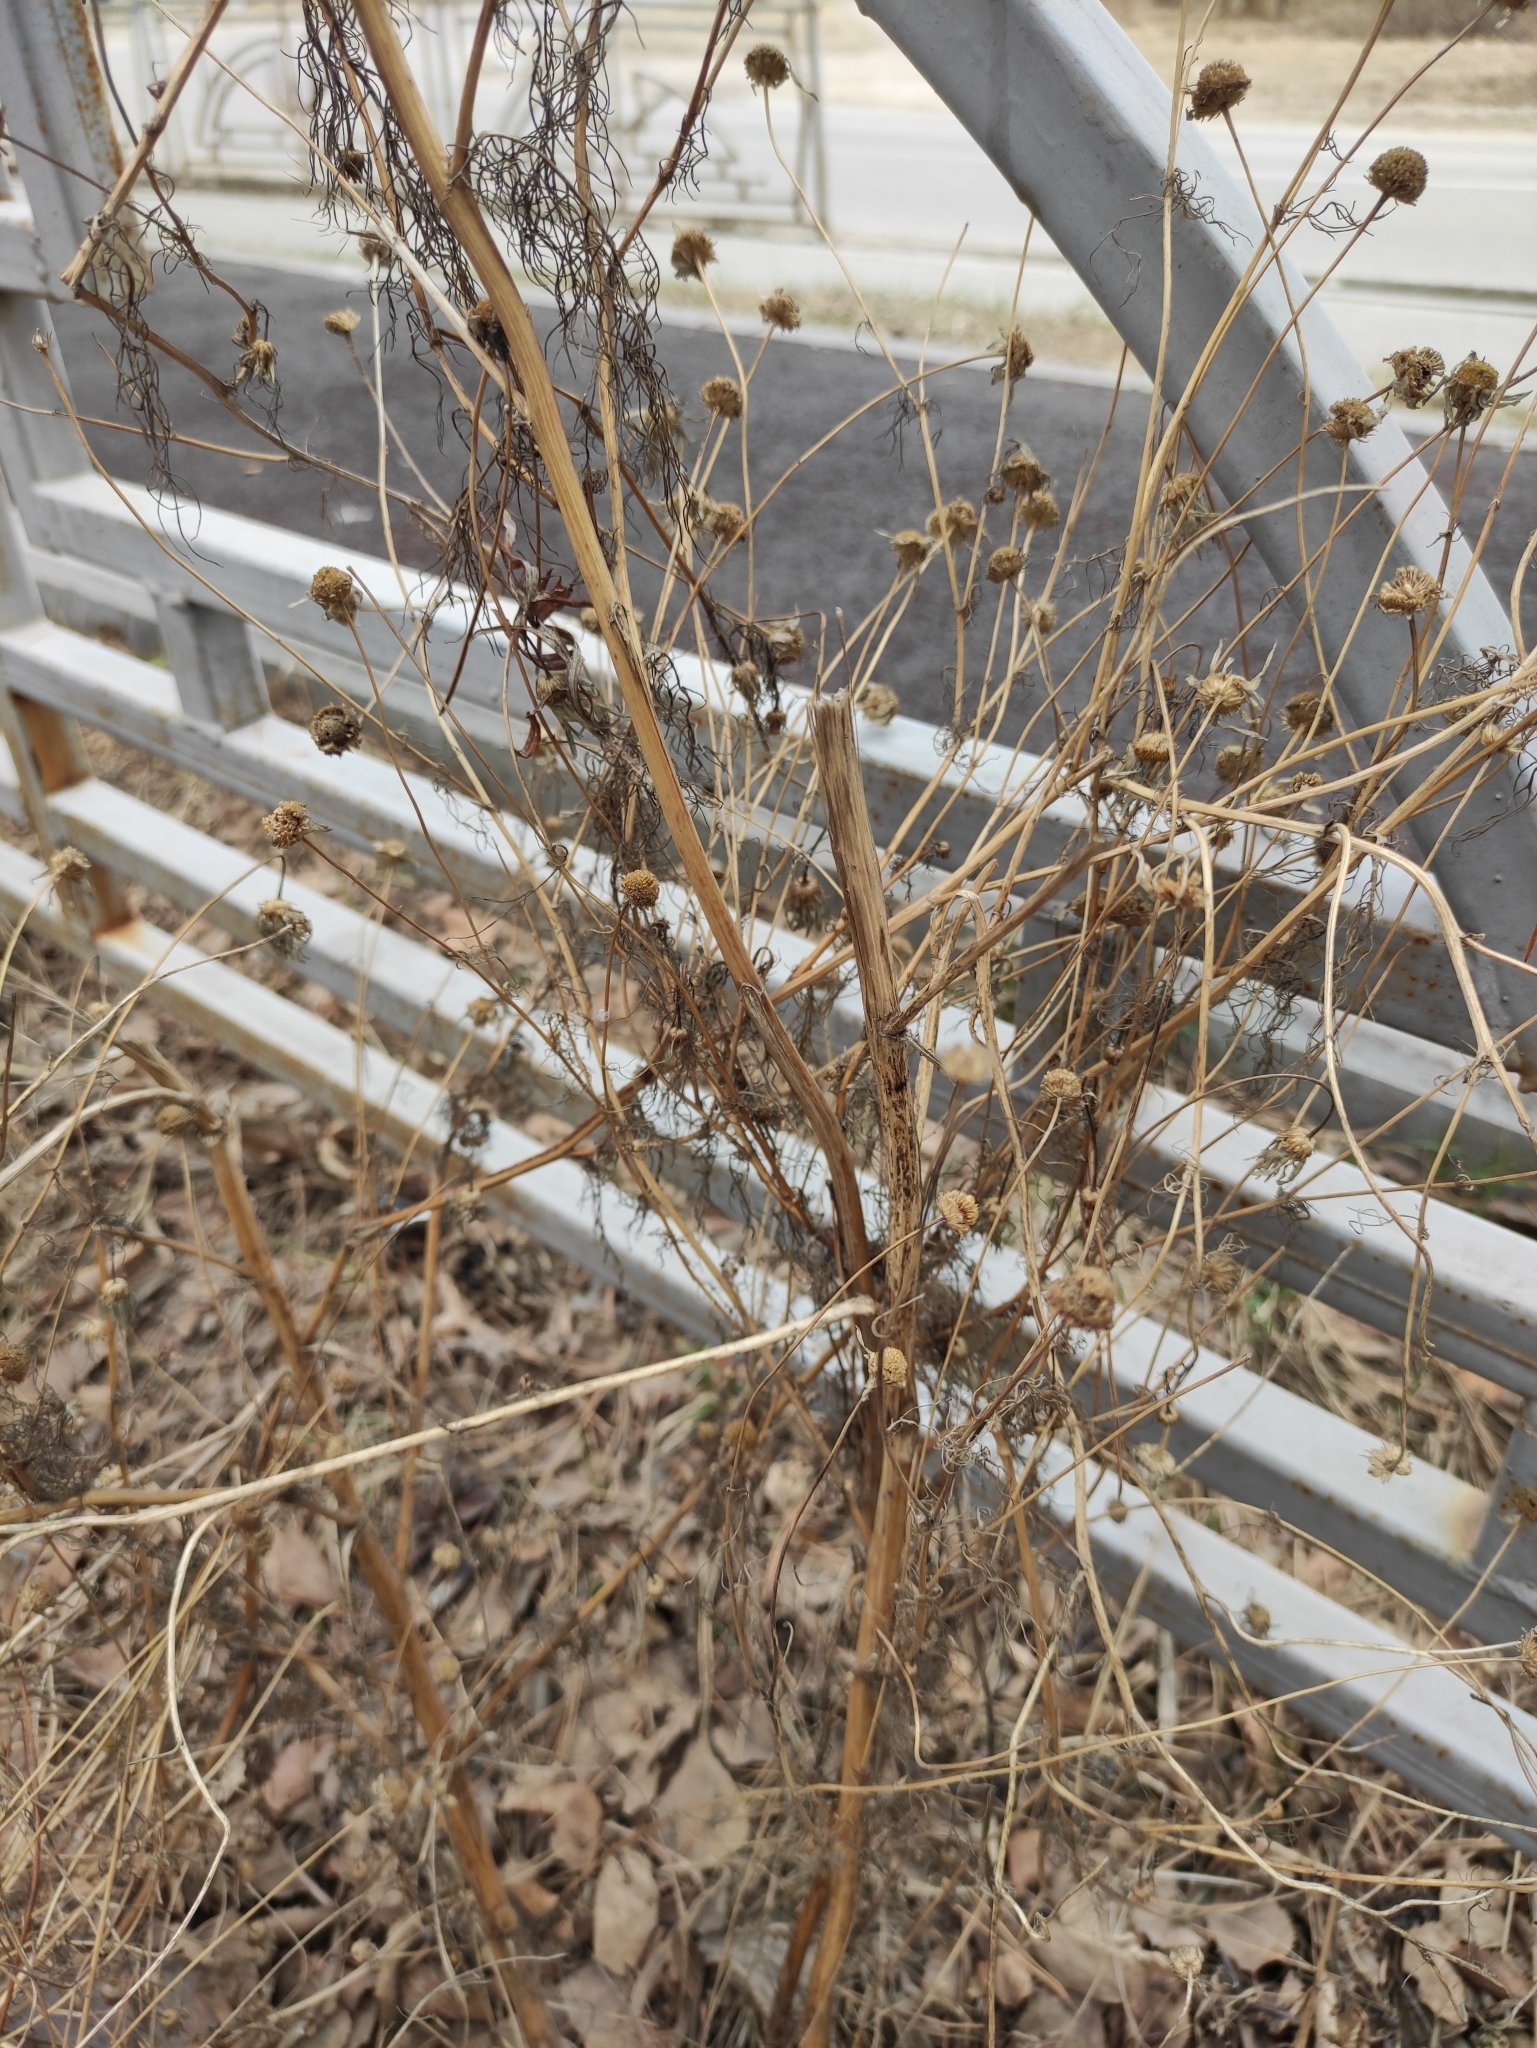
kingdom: Plantae
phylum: Tracheophyta
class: Magnoliopsida
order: Asterales
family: Asteraceae
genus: Tripleurospermum
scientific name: Tripleurospermum inodorum
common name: Scentless mayweed
